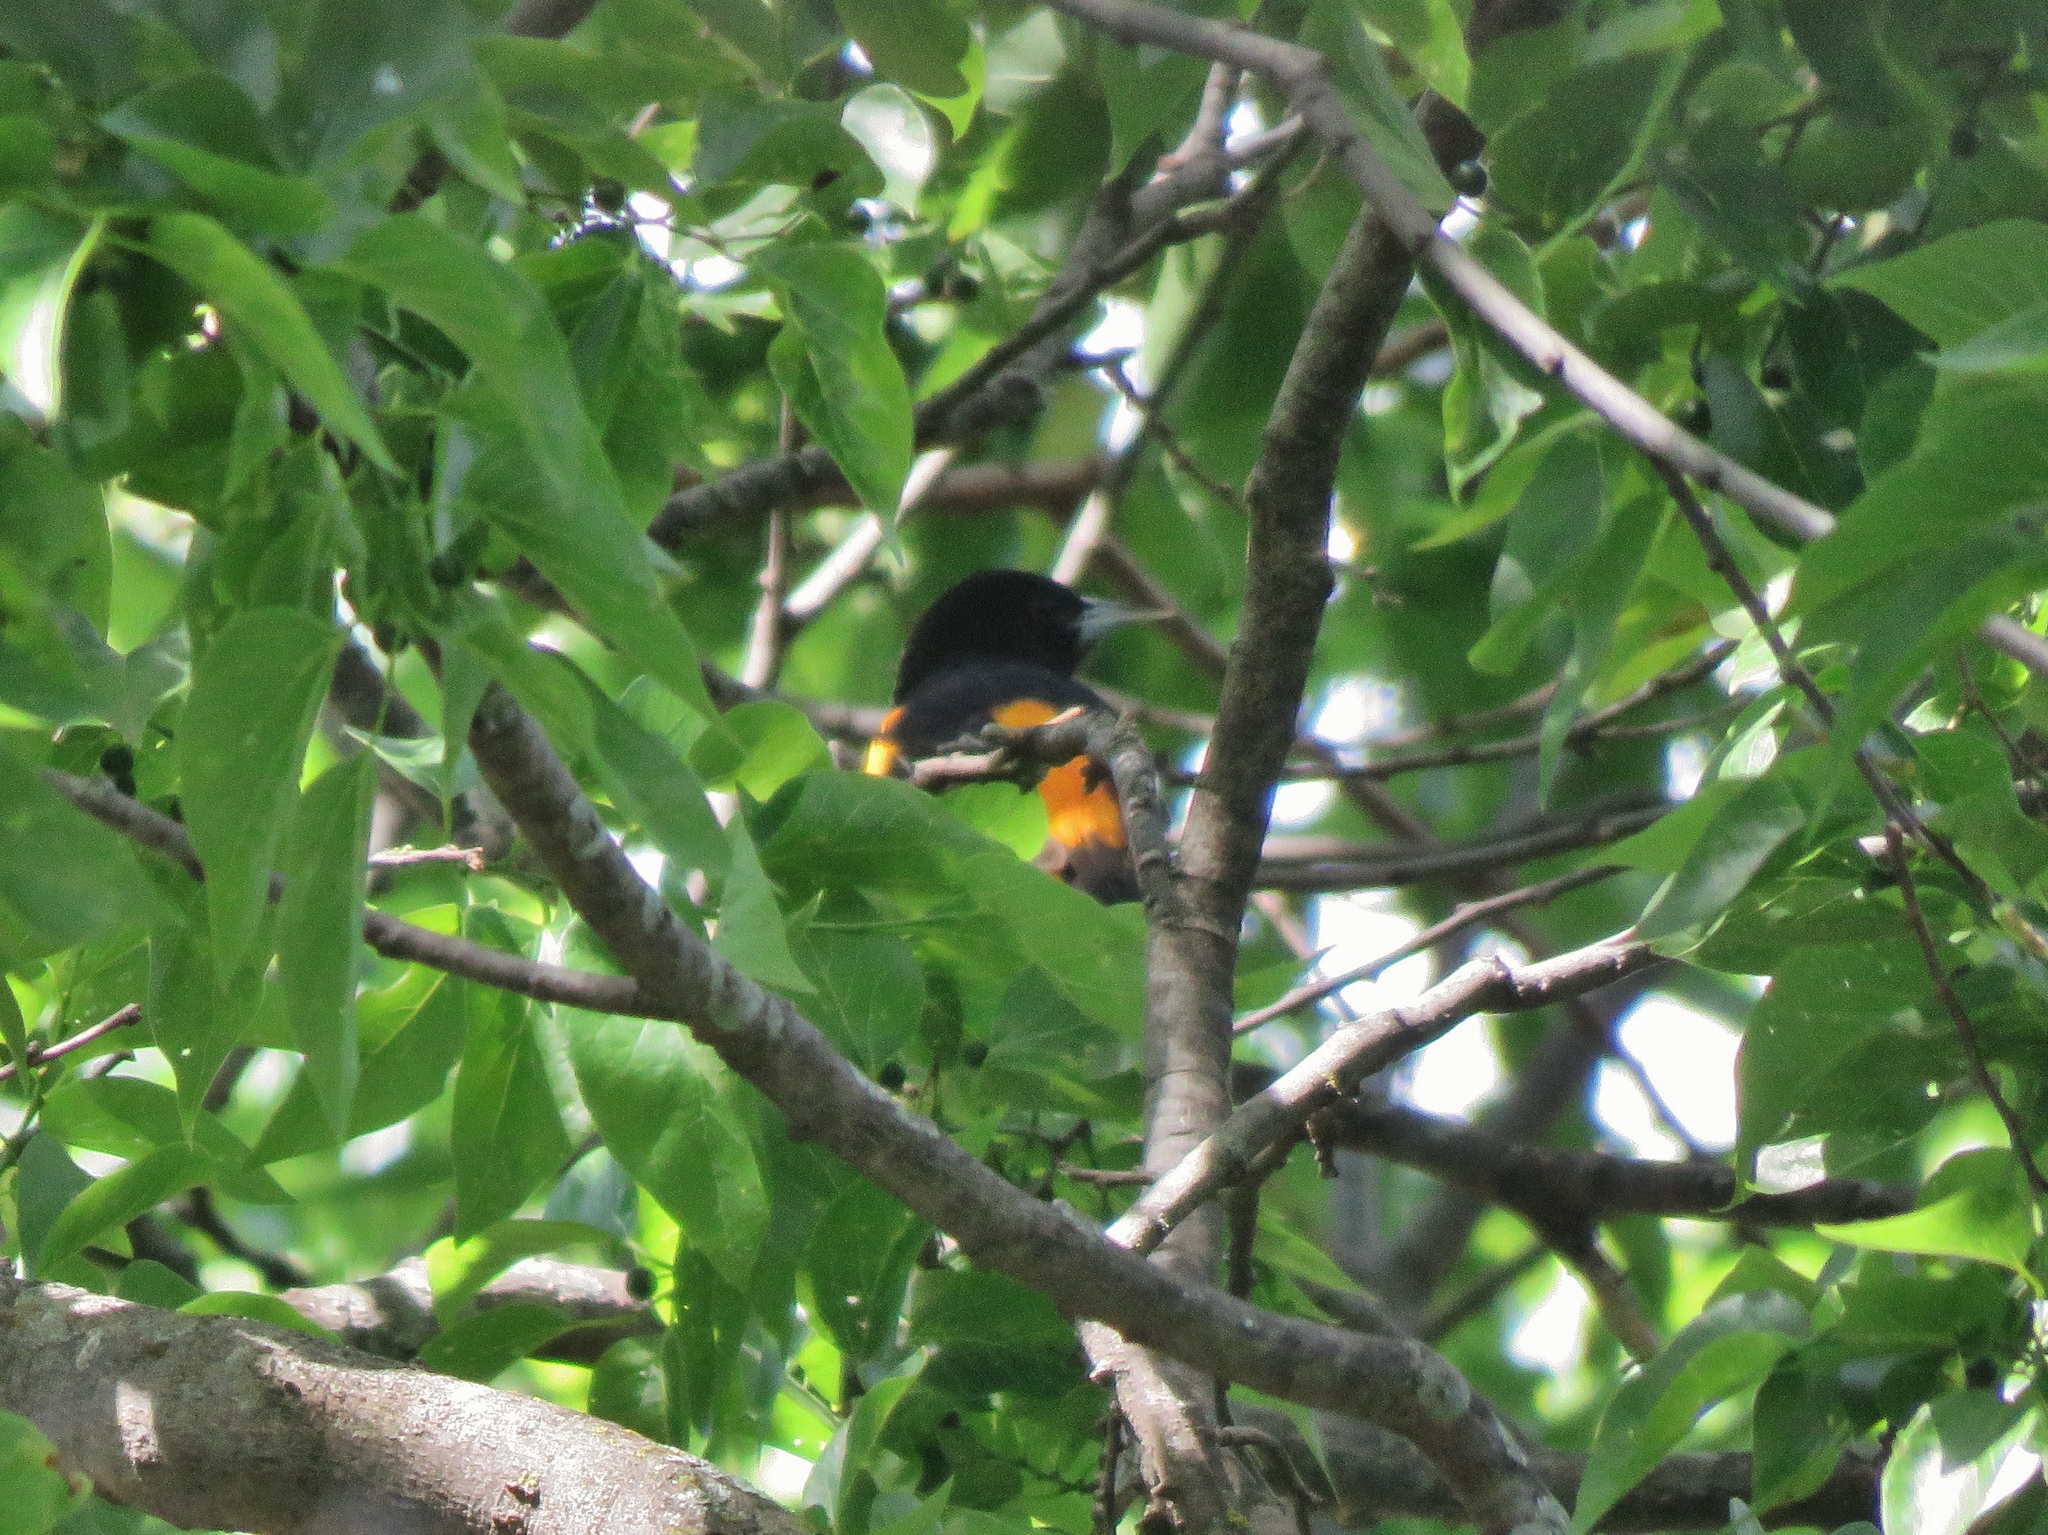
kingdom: Animalia
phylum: Chordata
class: Aves
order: Passeriformes
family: Icteridae
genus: Icterus
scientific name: Icterus galbula
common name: Baltimore oriole
